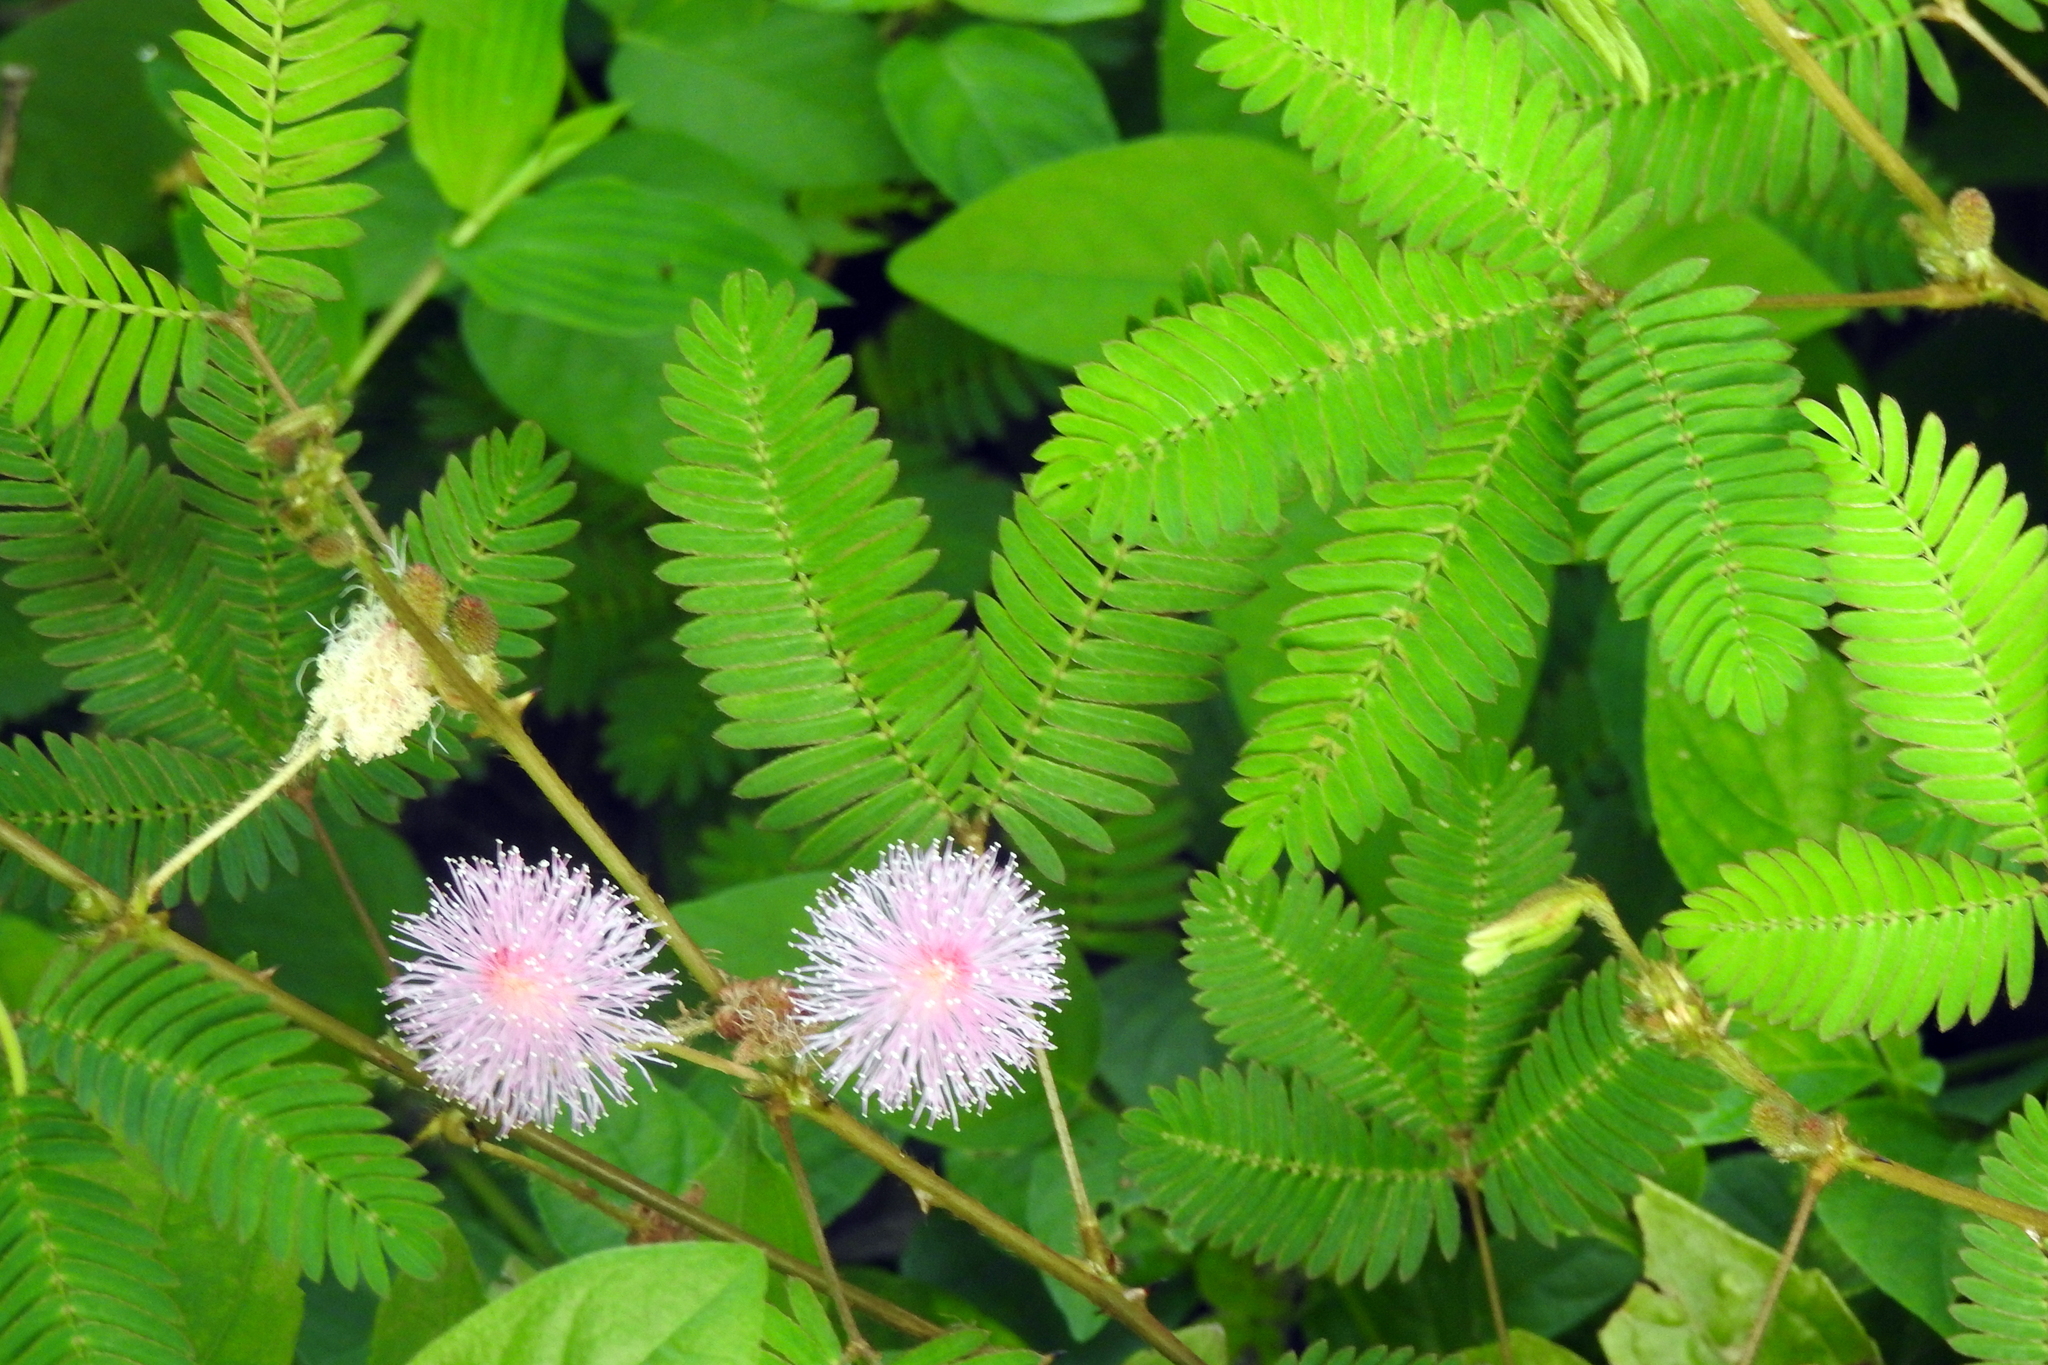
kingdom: Plantae
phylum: Tracheophyta
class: Magnoliopsida
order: Fabales
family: Fabaceae
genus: Mimosa
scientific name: Mimosa pudica
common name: Sensitive plant
